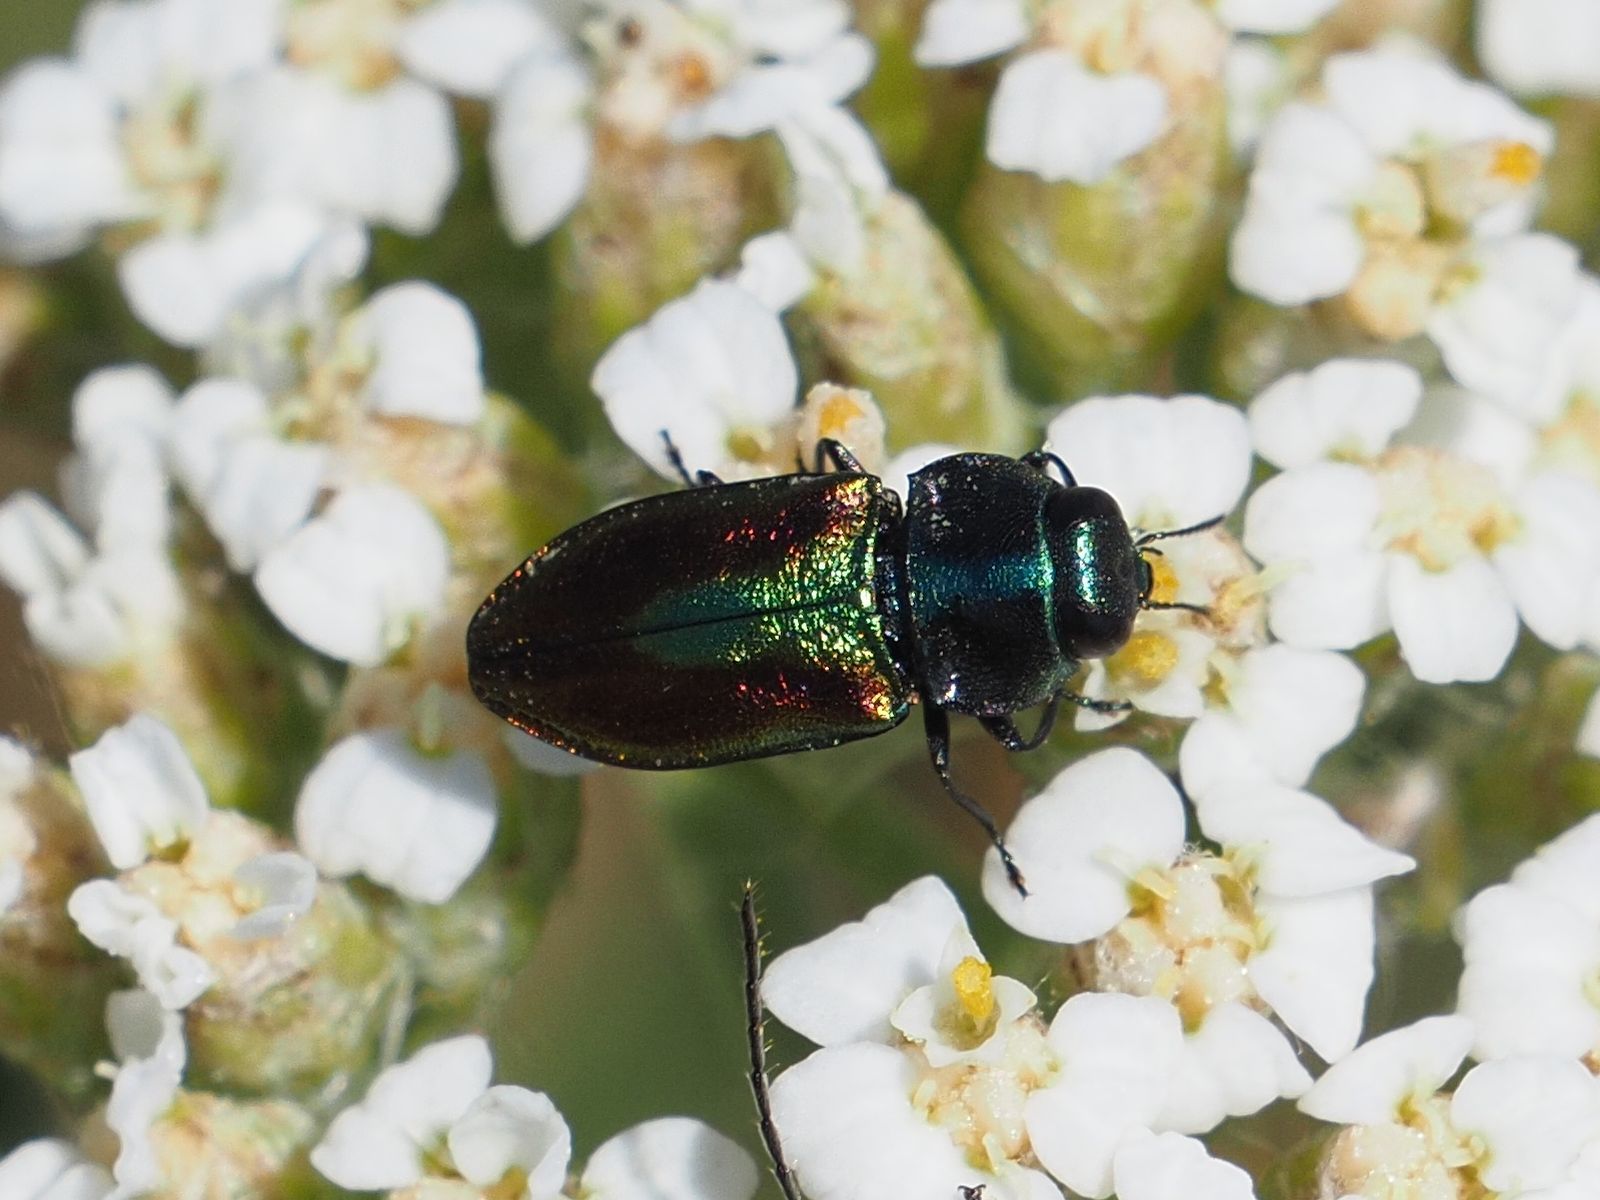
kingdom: Animalia
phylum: Arthropoda
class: Insecta
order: Coleoptera
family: Buprestidae
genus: Anthaxia
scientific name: Anthaxia fulgurans
